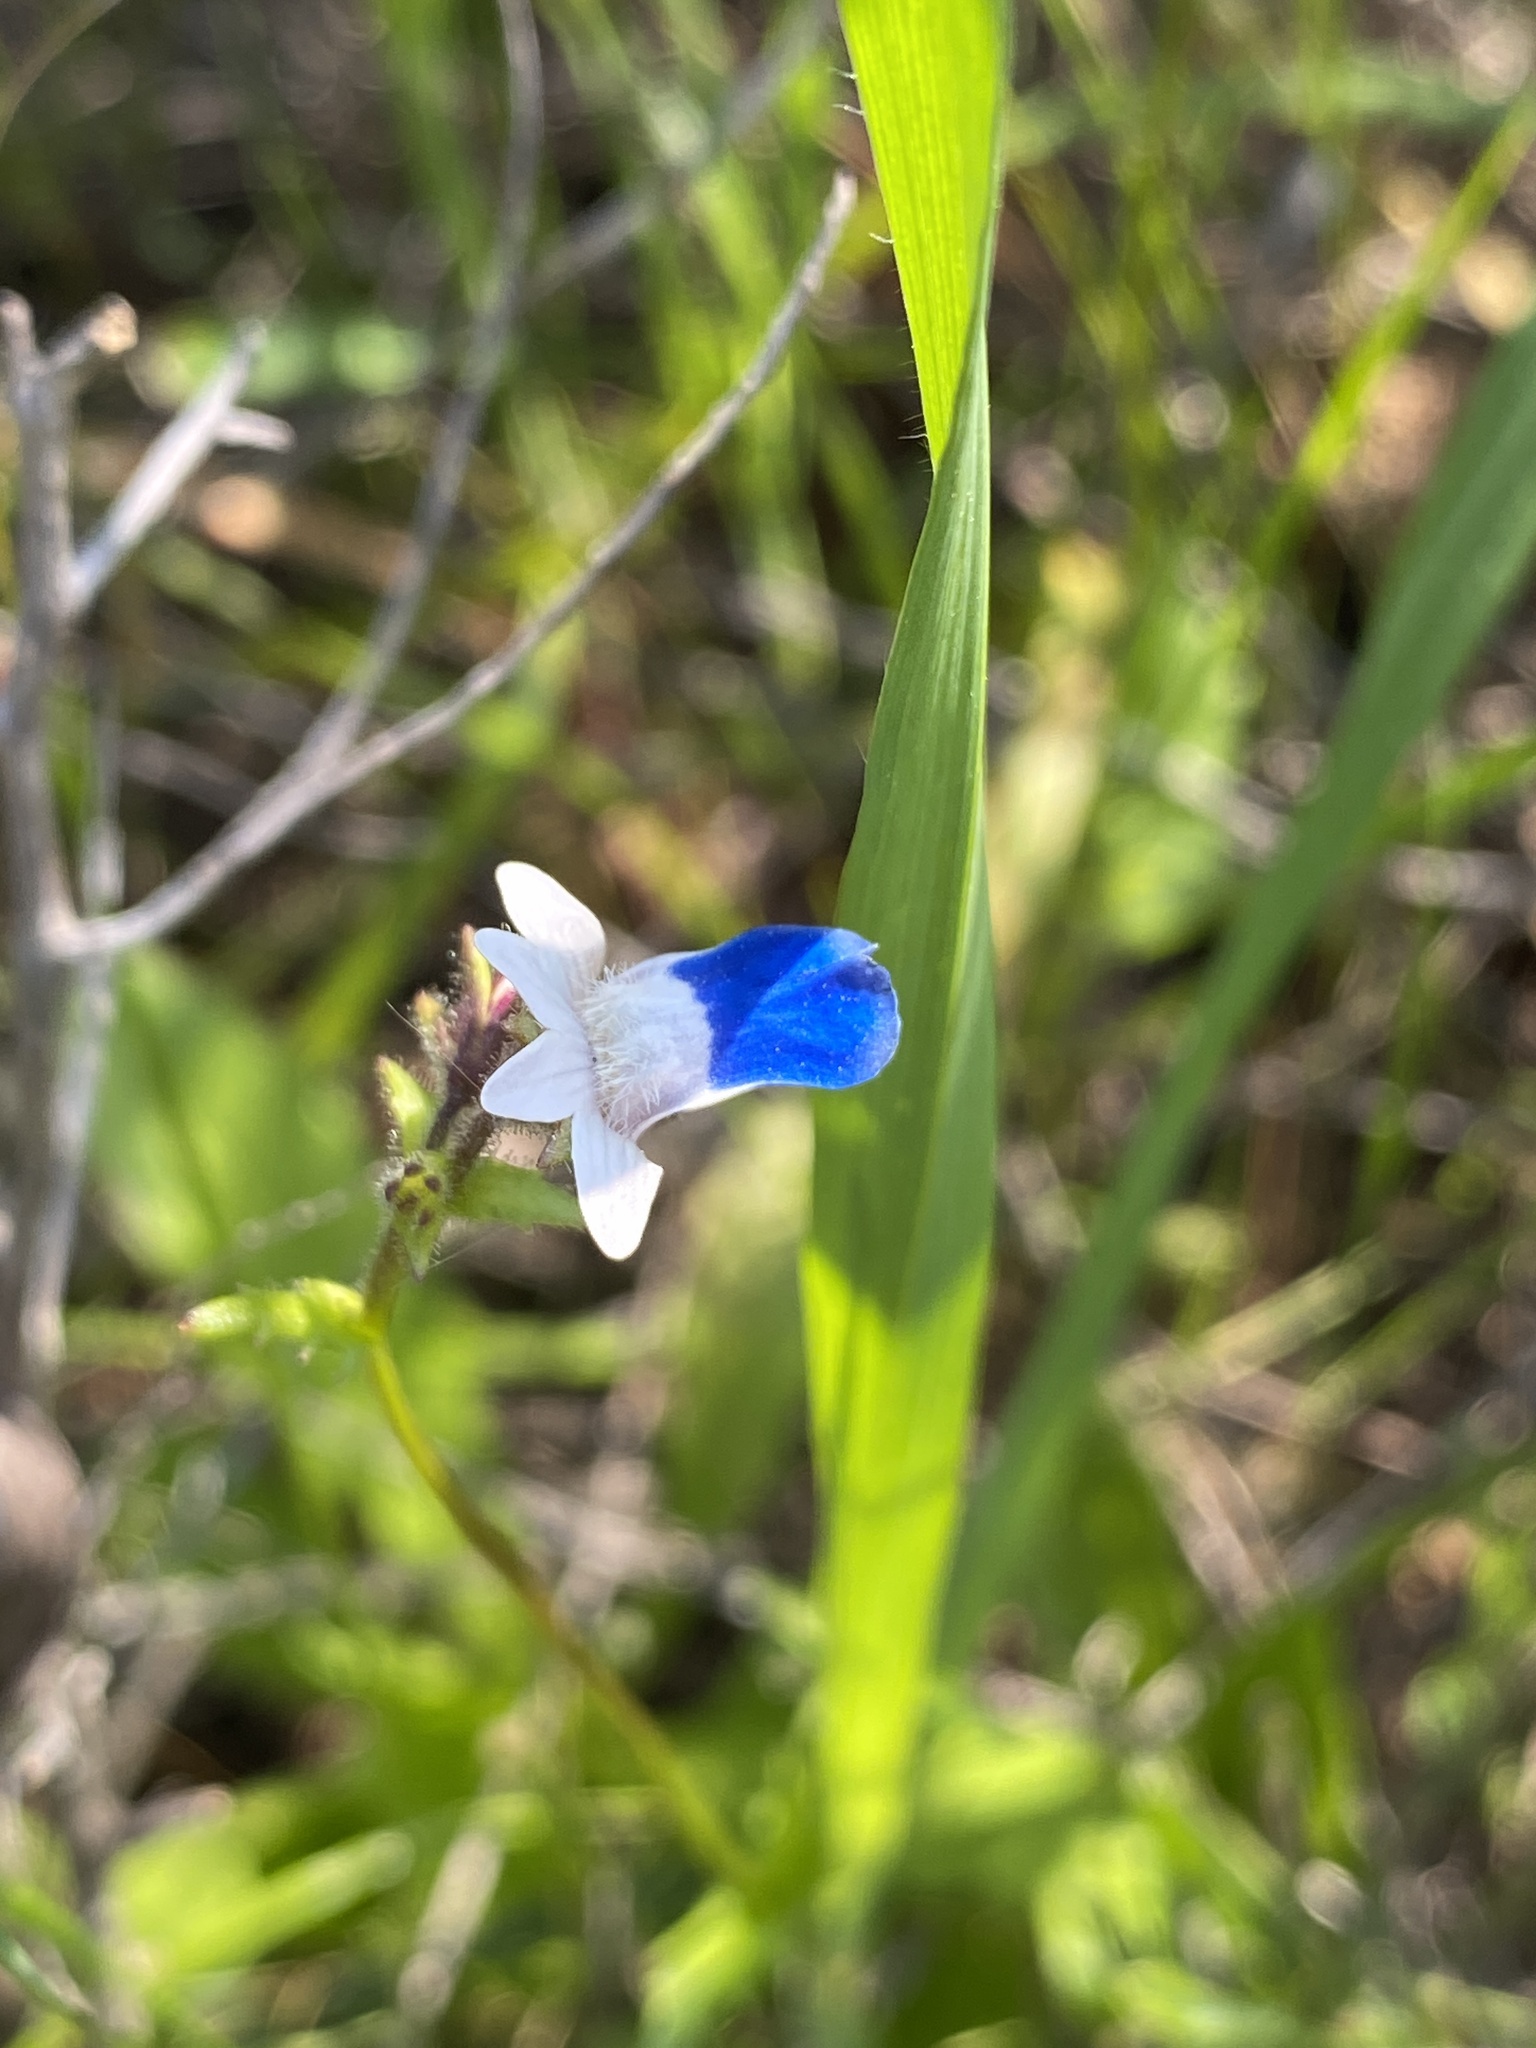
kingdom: Plantae
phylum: Tracheophyta
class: Magnoliopsida
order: Lamiales
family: Scrophulariaceae
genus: Nemesia
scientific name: Nemesia barbata
